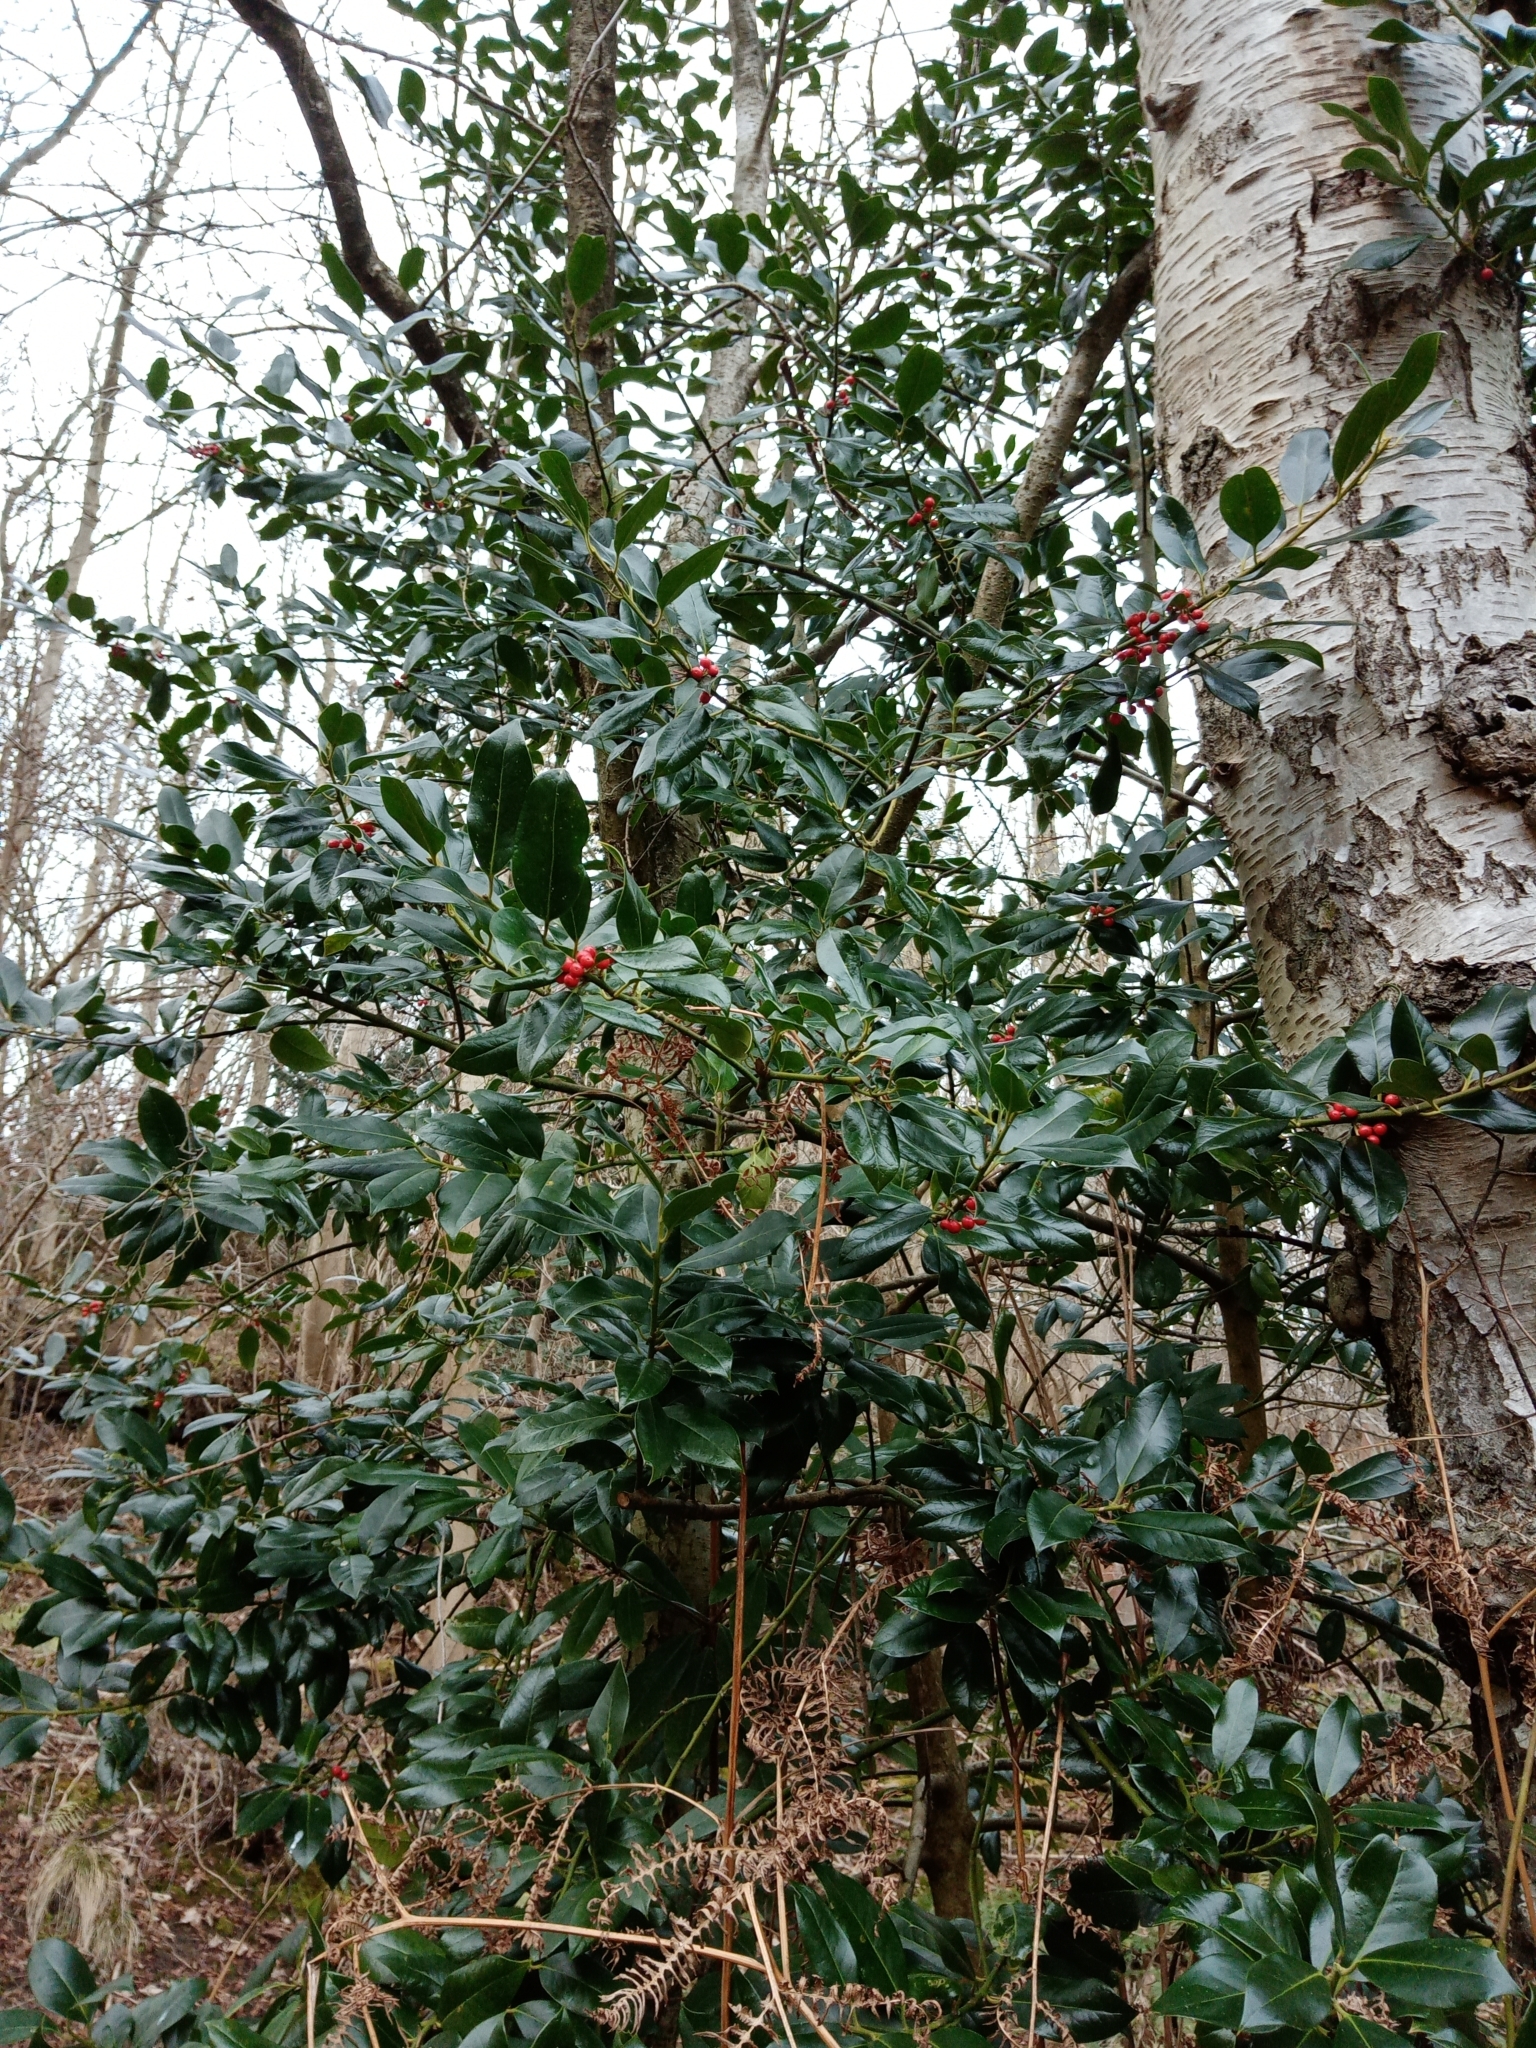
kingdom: Plantae
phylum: Tracheophyta
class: Magnoliopsida
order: Aquifoliales
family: Aquifoliaceae
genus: Ilex
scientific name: Ilex aquifolium
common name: English holly
